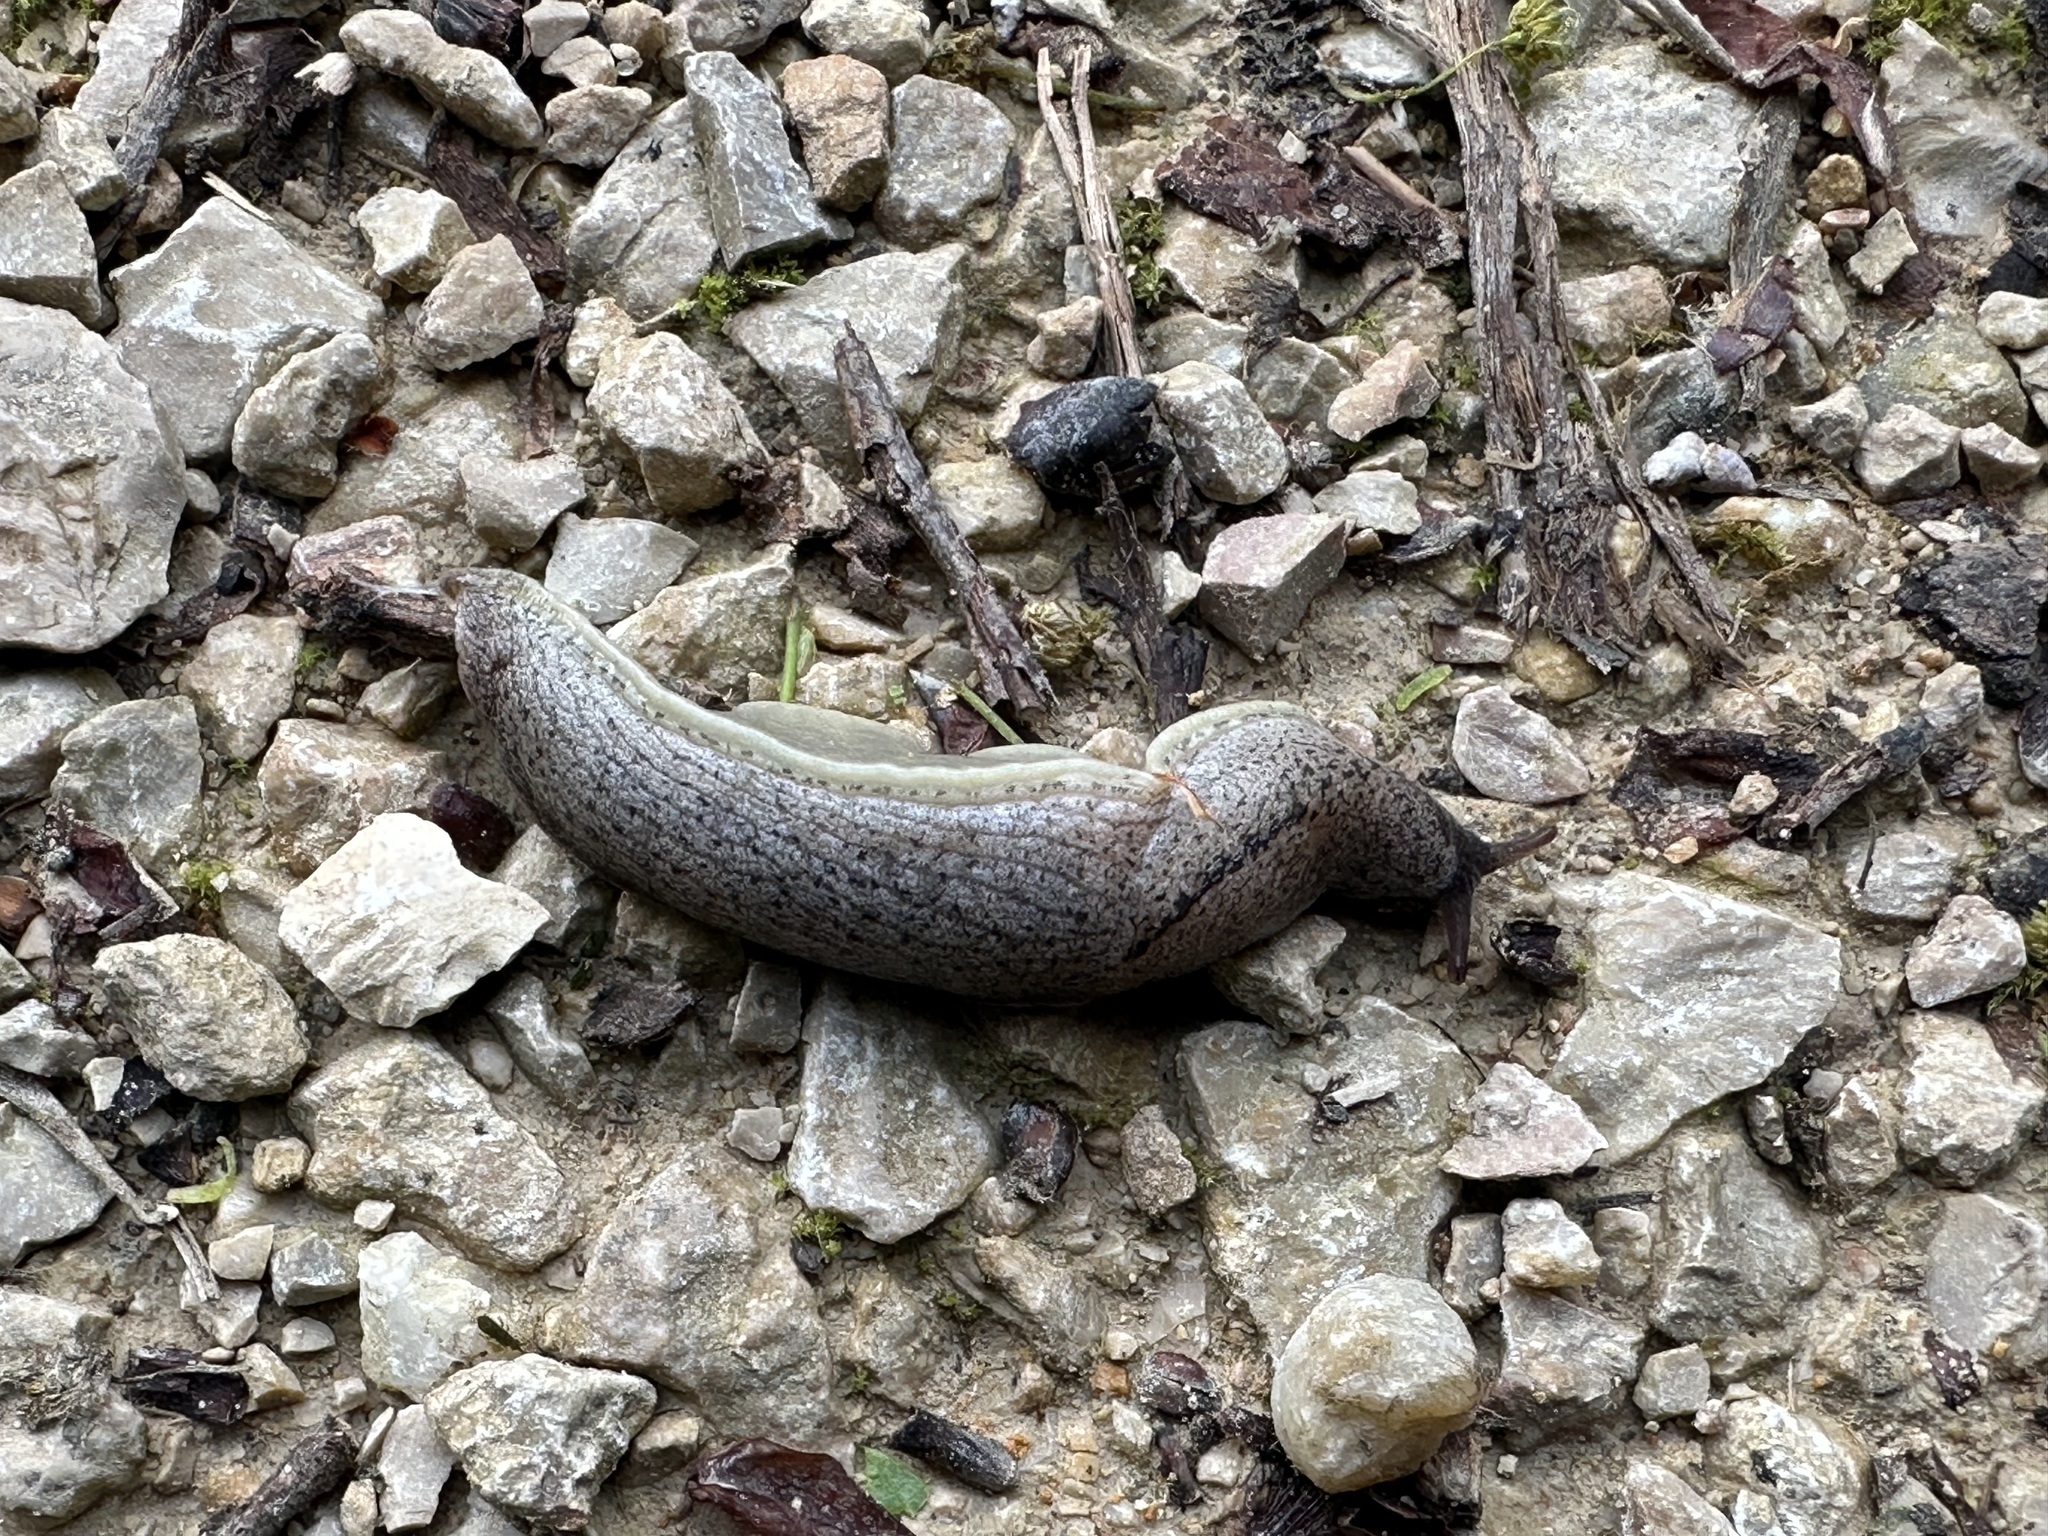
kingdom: Animalia
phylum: Mollusca
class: Gastropoda
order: Stylommatophora
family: Milacidae
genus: Tandonia
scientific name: Tandonia rustica
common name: Bulb-eating slug
